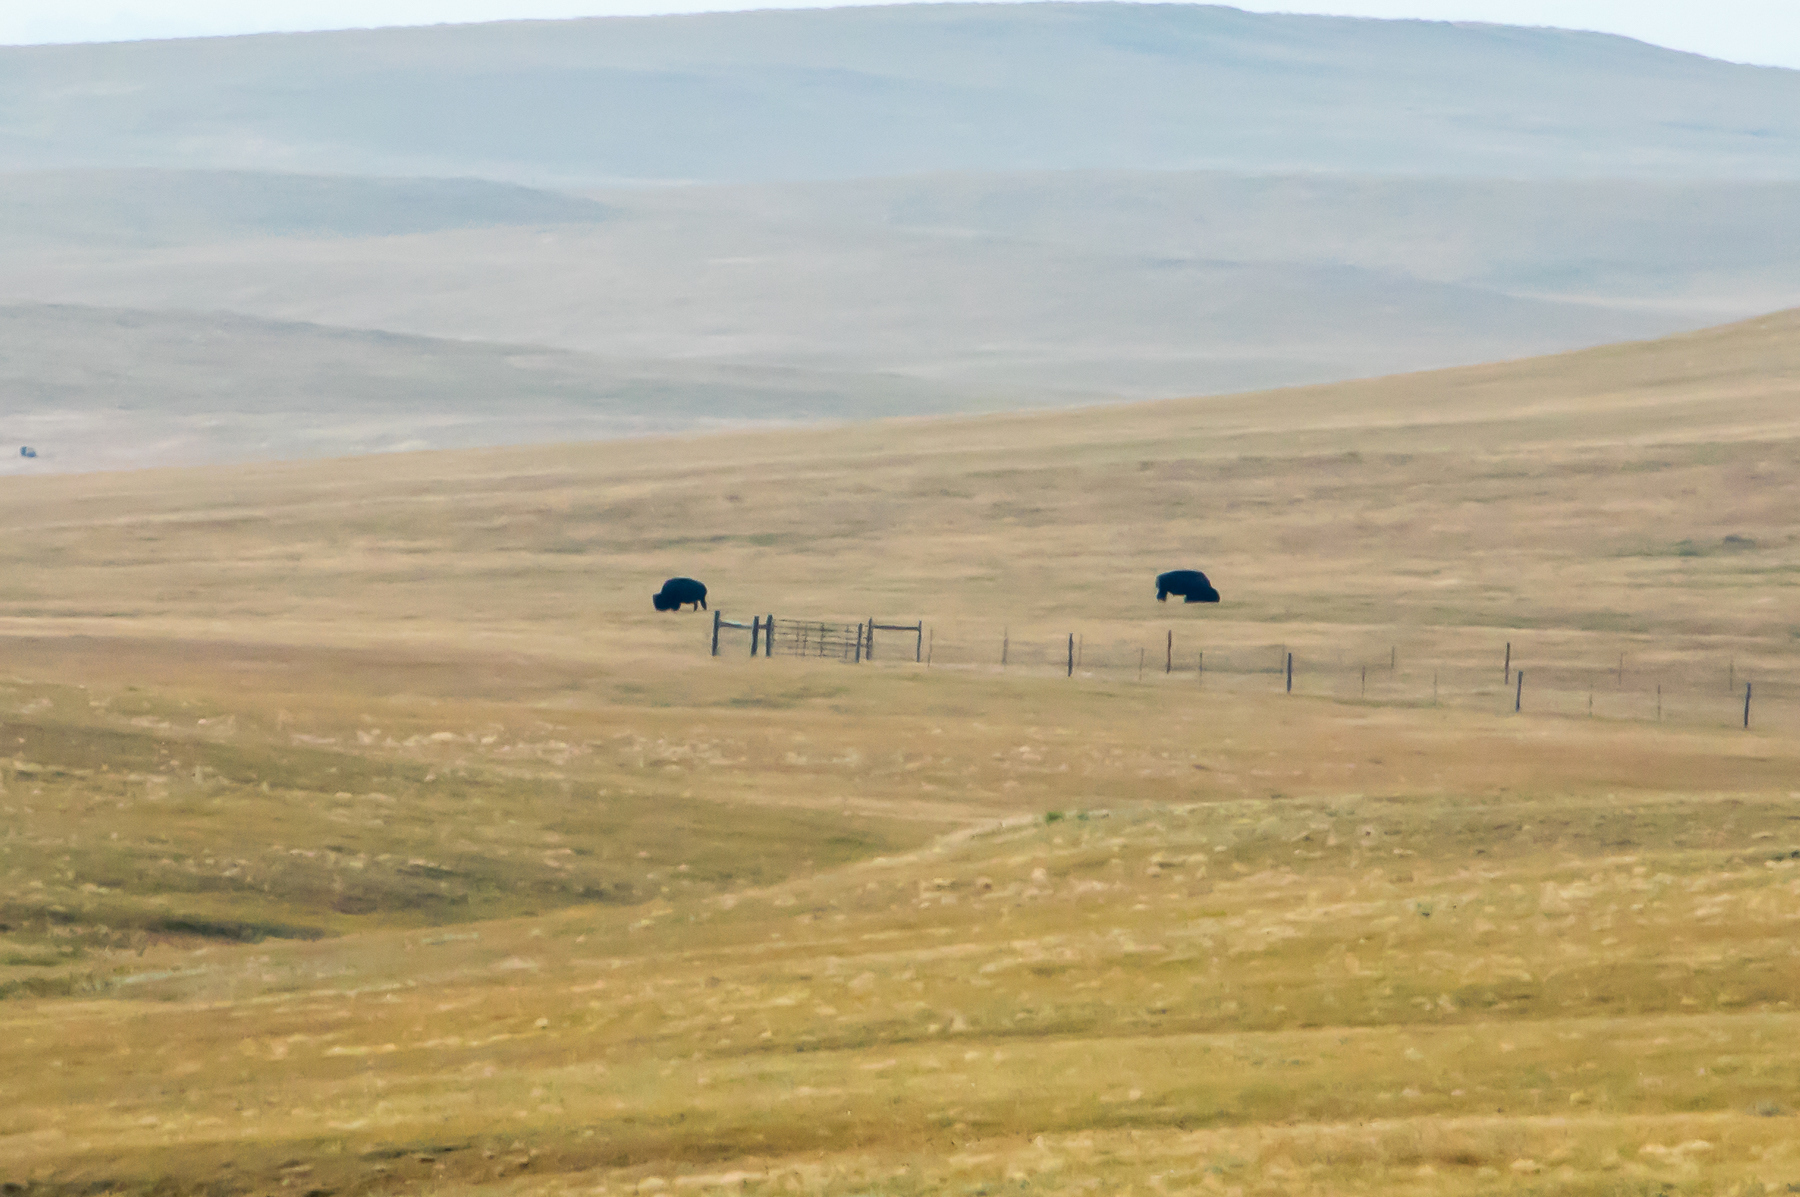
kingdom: Animalia
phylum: Chordata
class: Mammalia
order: Artiodactyla
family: Bovidae
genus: Bison
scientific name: Bison bison
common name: American bison
